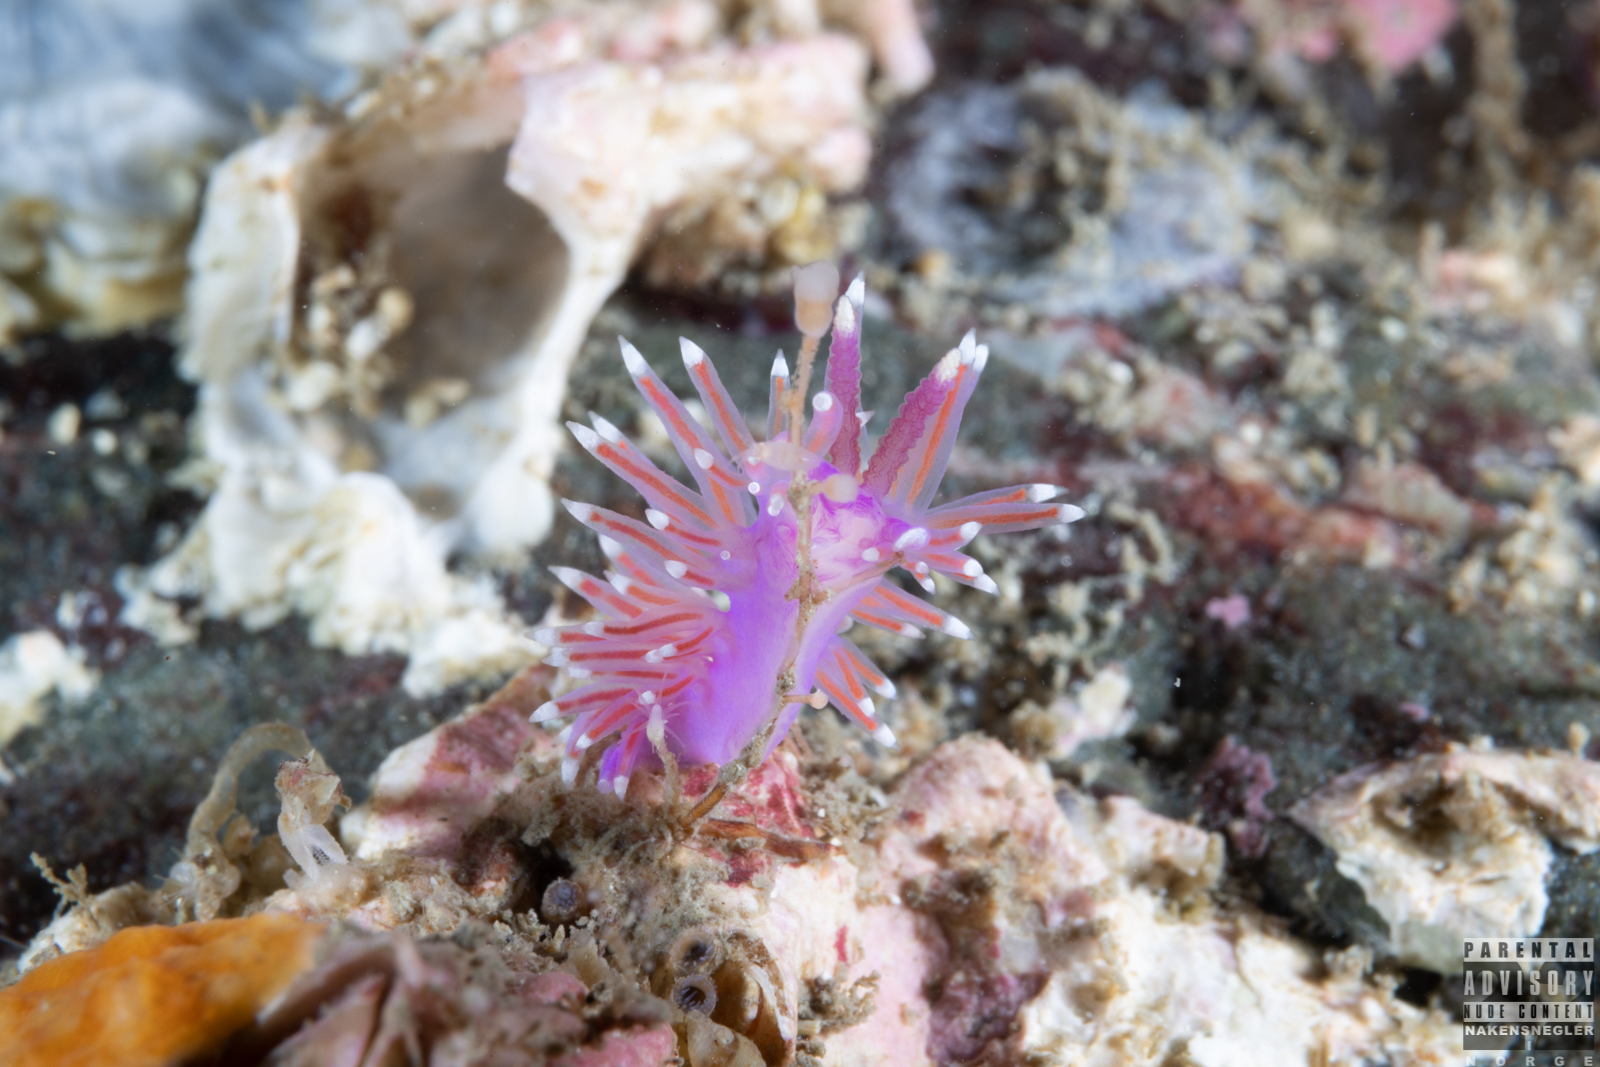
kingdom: Animalia
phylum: Mollusca
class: Gastropoda
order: Nudibranchia
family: Flabellinidae
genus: Edmundsella
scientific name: Edmundsella pedata
